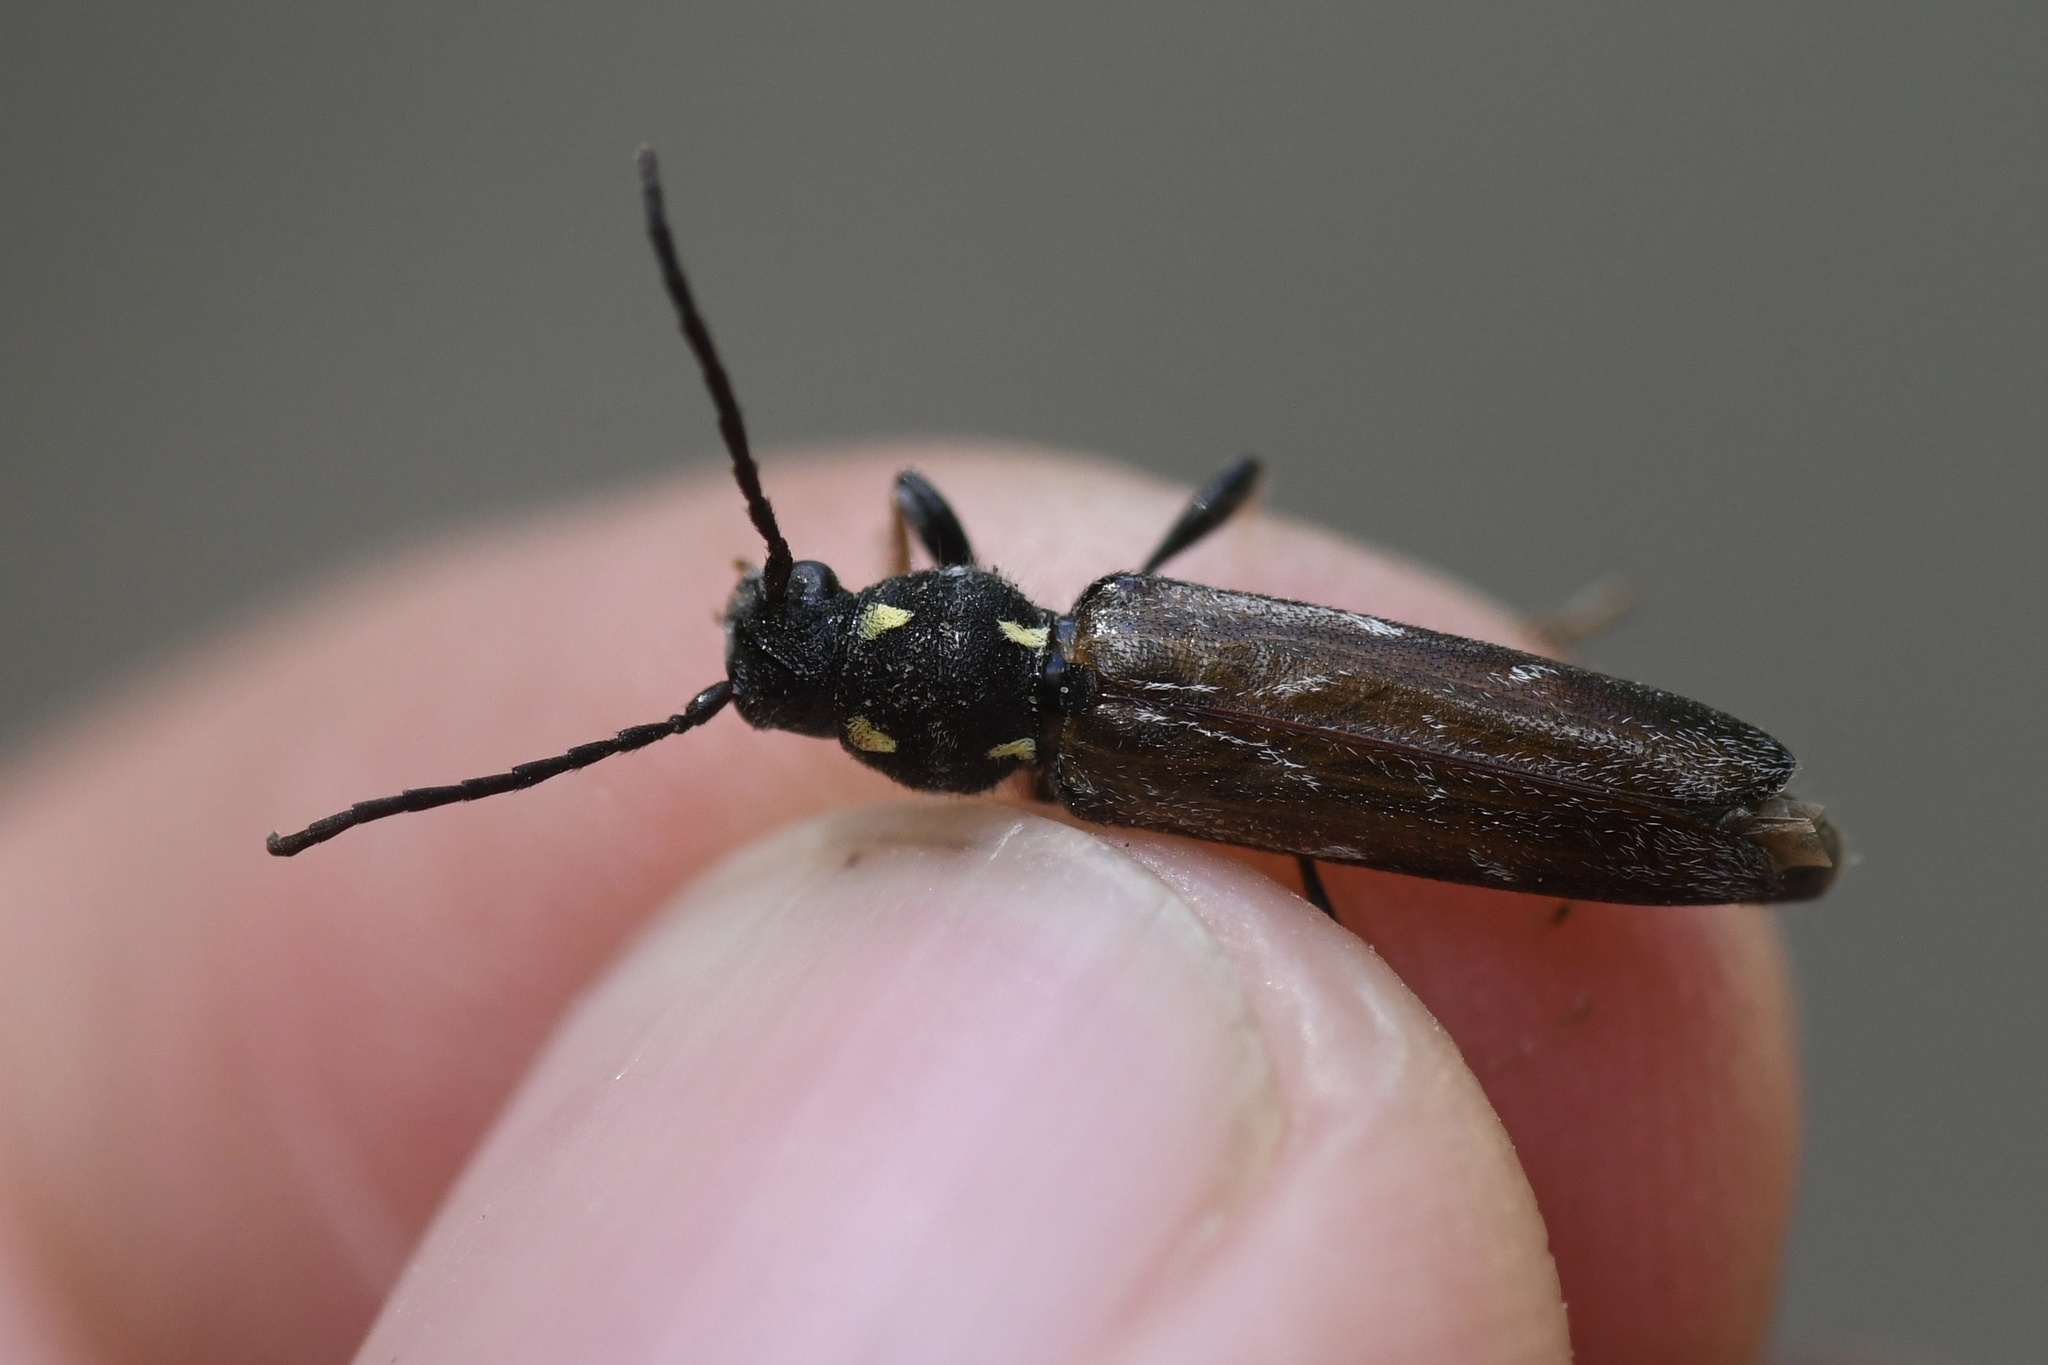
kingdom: Animalia
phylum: Arthropoda
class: Insecta
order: Coleoptera
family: Cerambycidae
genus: Xylotrechus
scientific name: Xylotrechus quadrimaculatus
